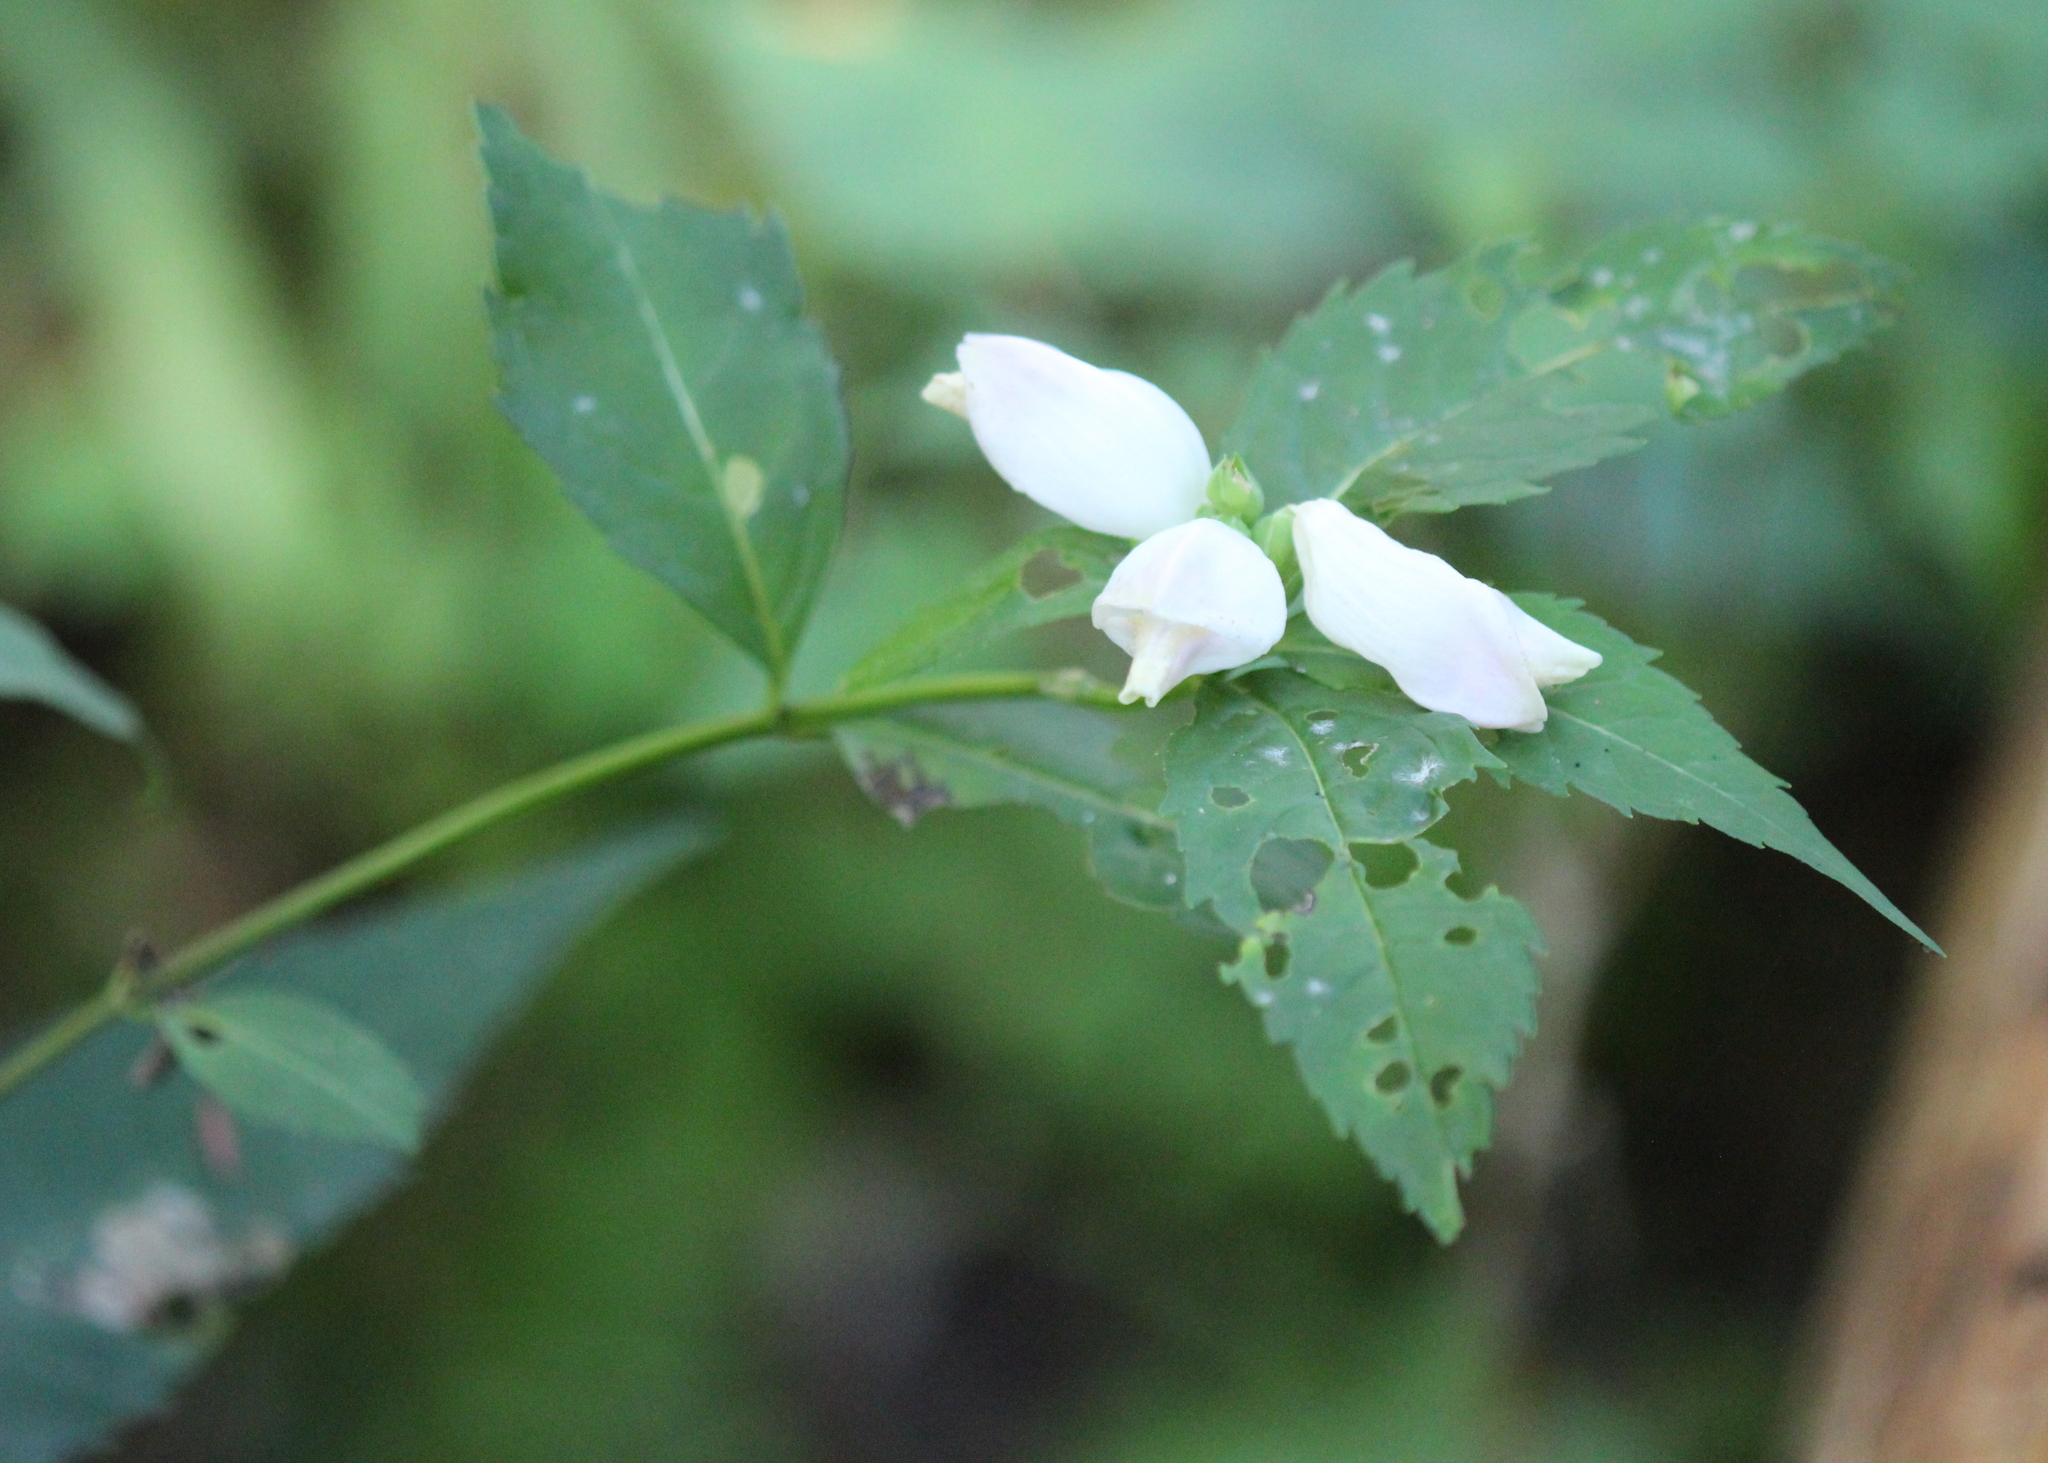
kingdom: Plantae
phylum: Tracheophyta
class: Magnoliopsida
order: Lamiales
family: Plantaginaceae
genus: Chelone
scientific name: Chelone glabra
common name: Snakehead
